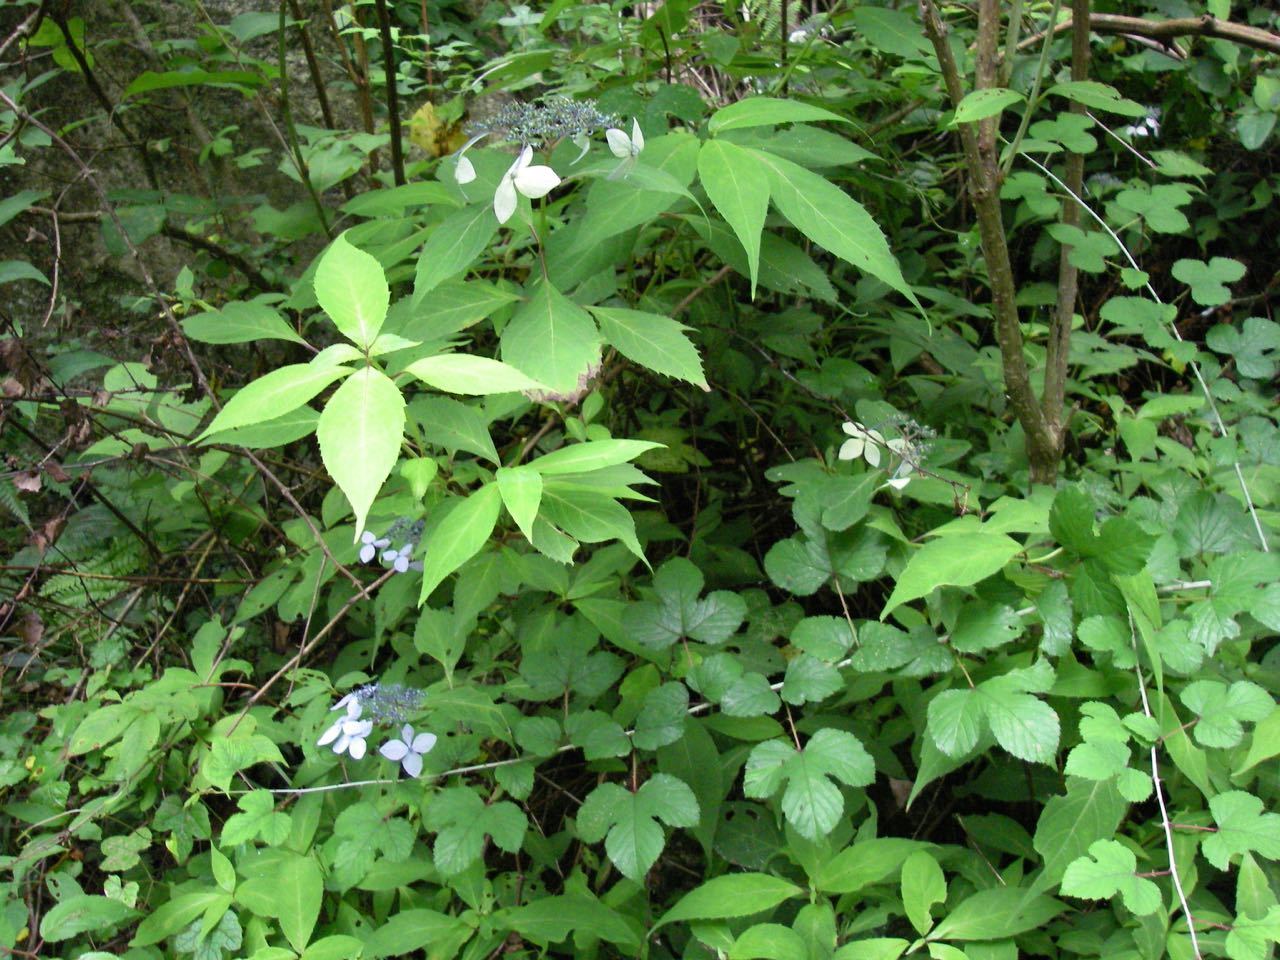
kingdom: Plantae
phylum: Tracheophyta
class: Magnoliopsida
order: Cornales
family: Hydrangeaceae
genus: Hydrangea
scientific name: Hydrangea serrata
